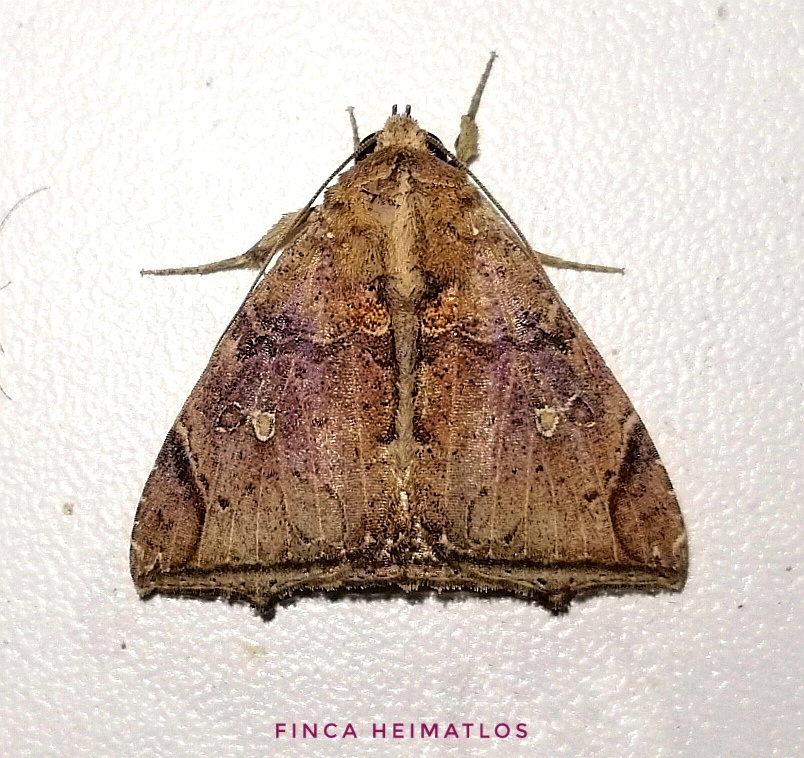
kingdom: Animalia
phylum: Arthropoda
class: Insecta
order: Lepidoptera
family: Erebidae
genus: Pseudophisma
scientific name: Pseudophisma pritanis
